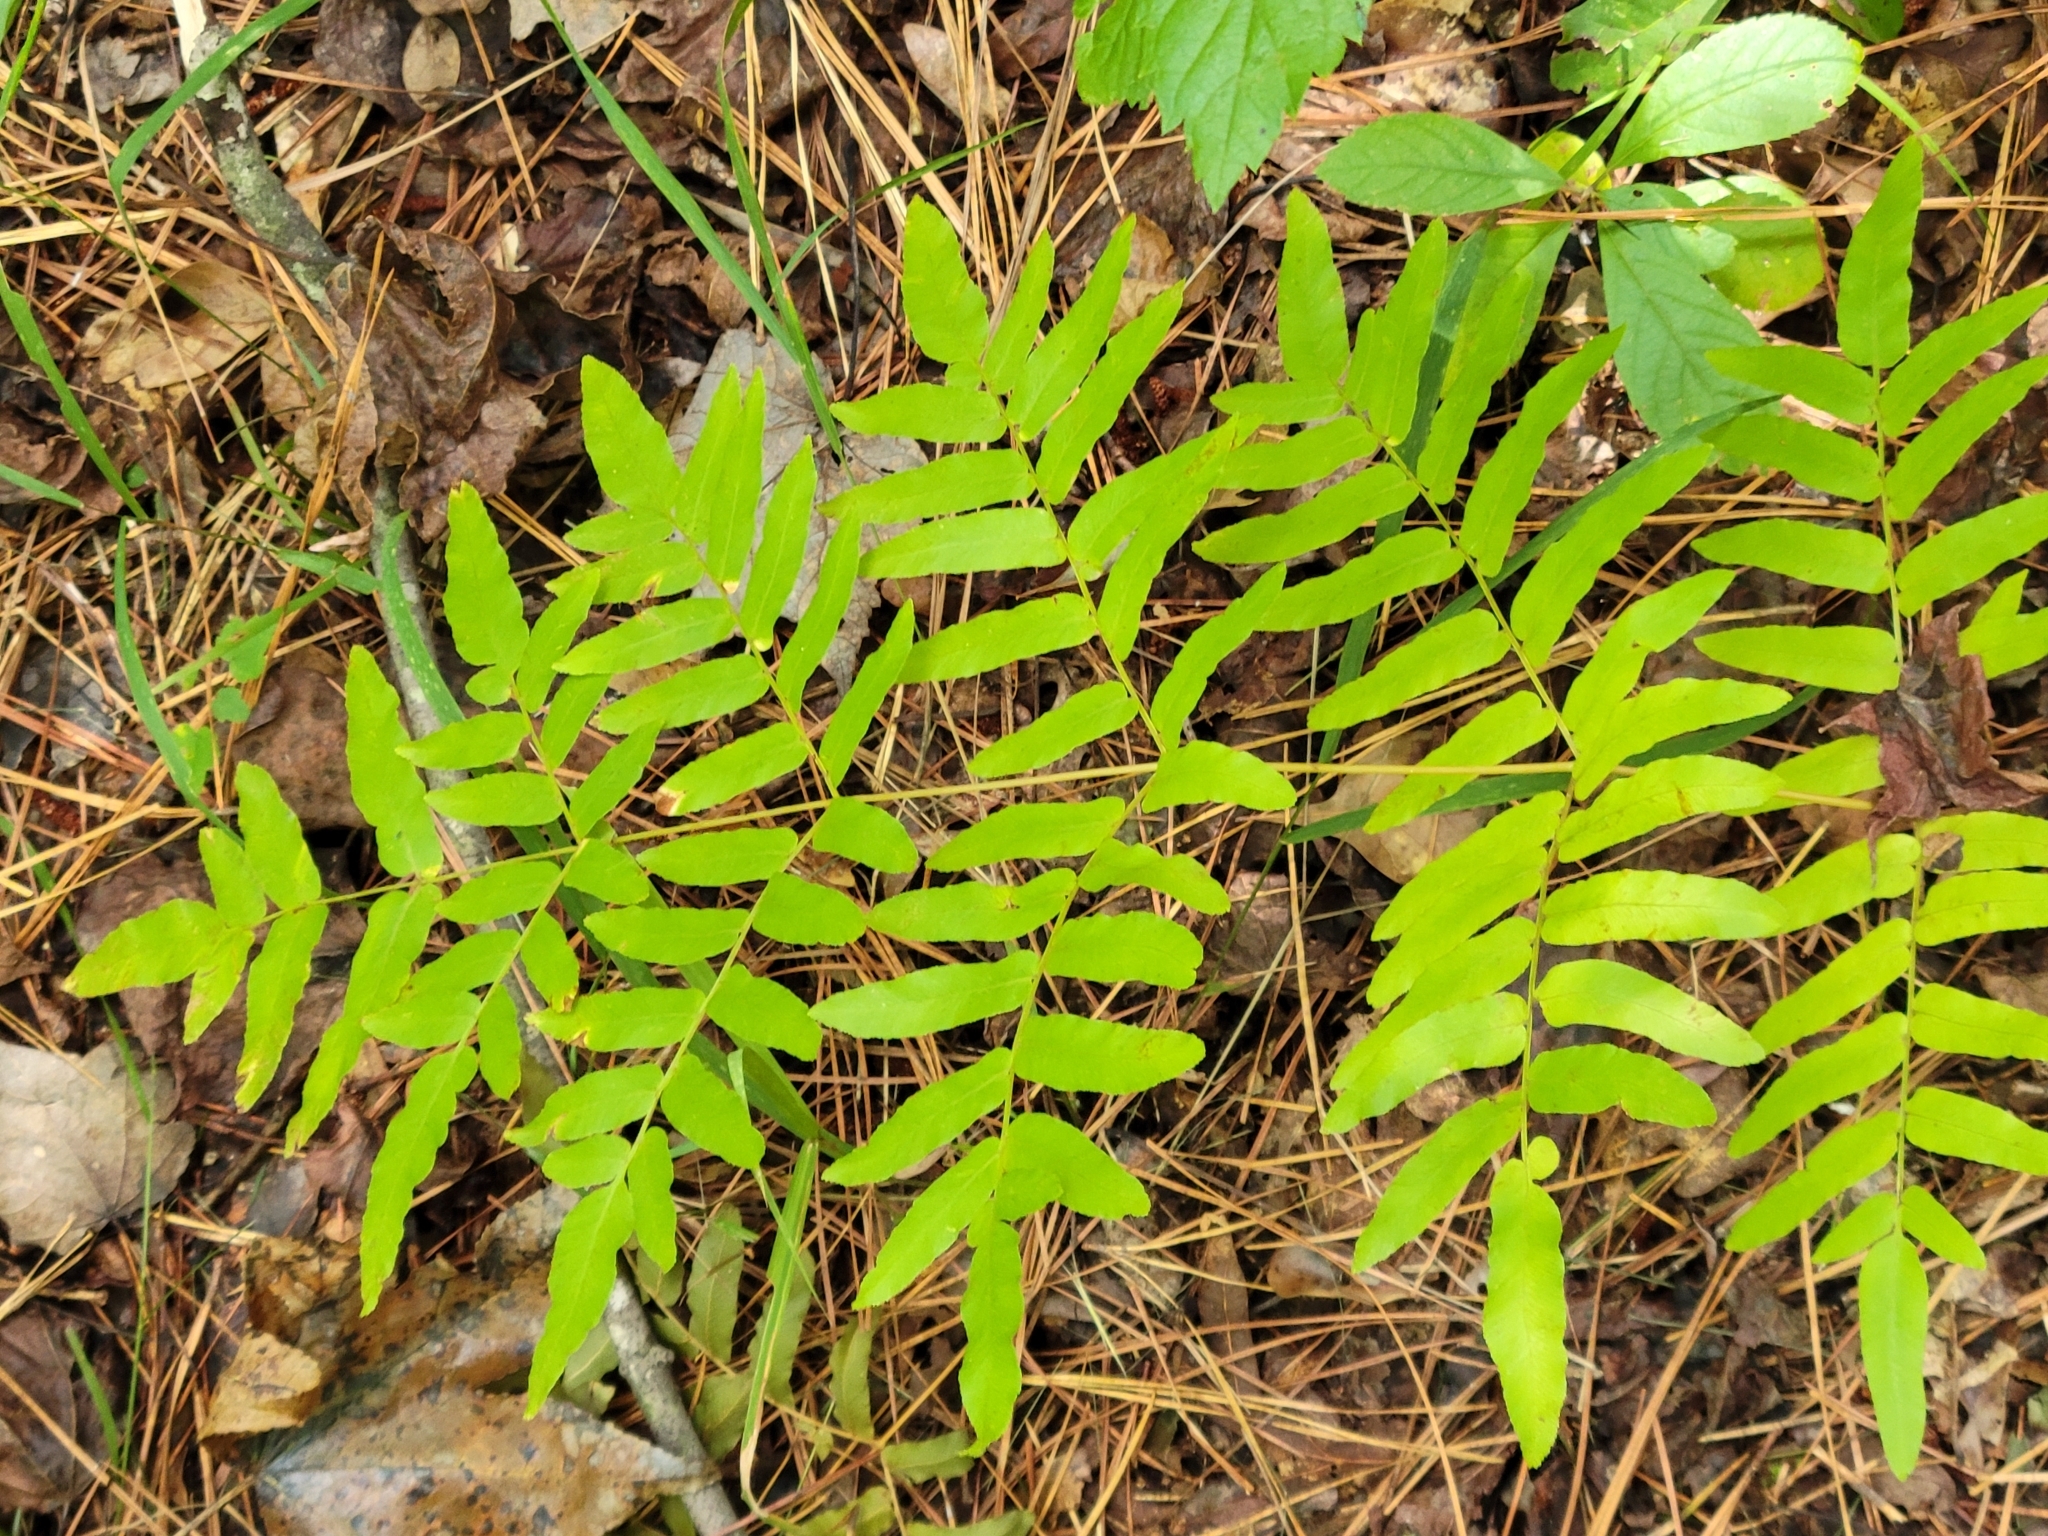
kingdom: Plantae
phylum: Tracheophyta
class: Polypodiopsida
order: Osmundales
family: Osmundaceae
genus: Osmunda
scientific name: Osmunda spectabilis
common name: American royal fern
